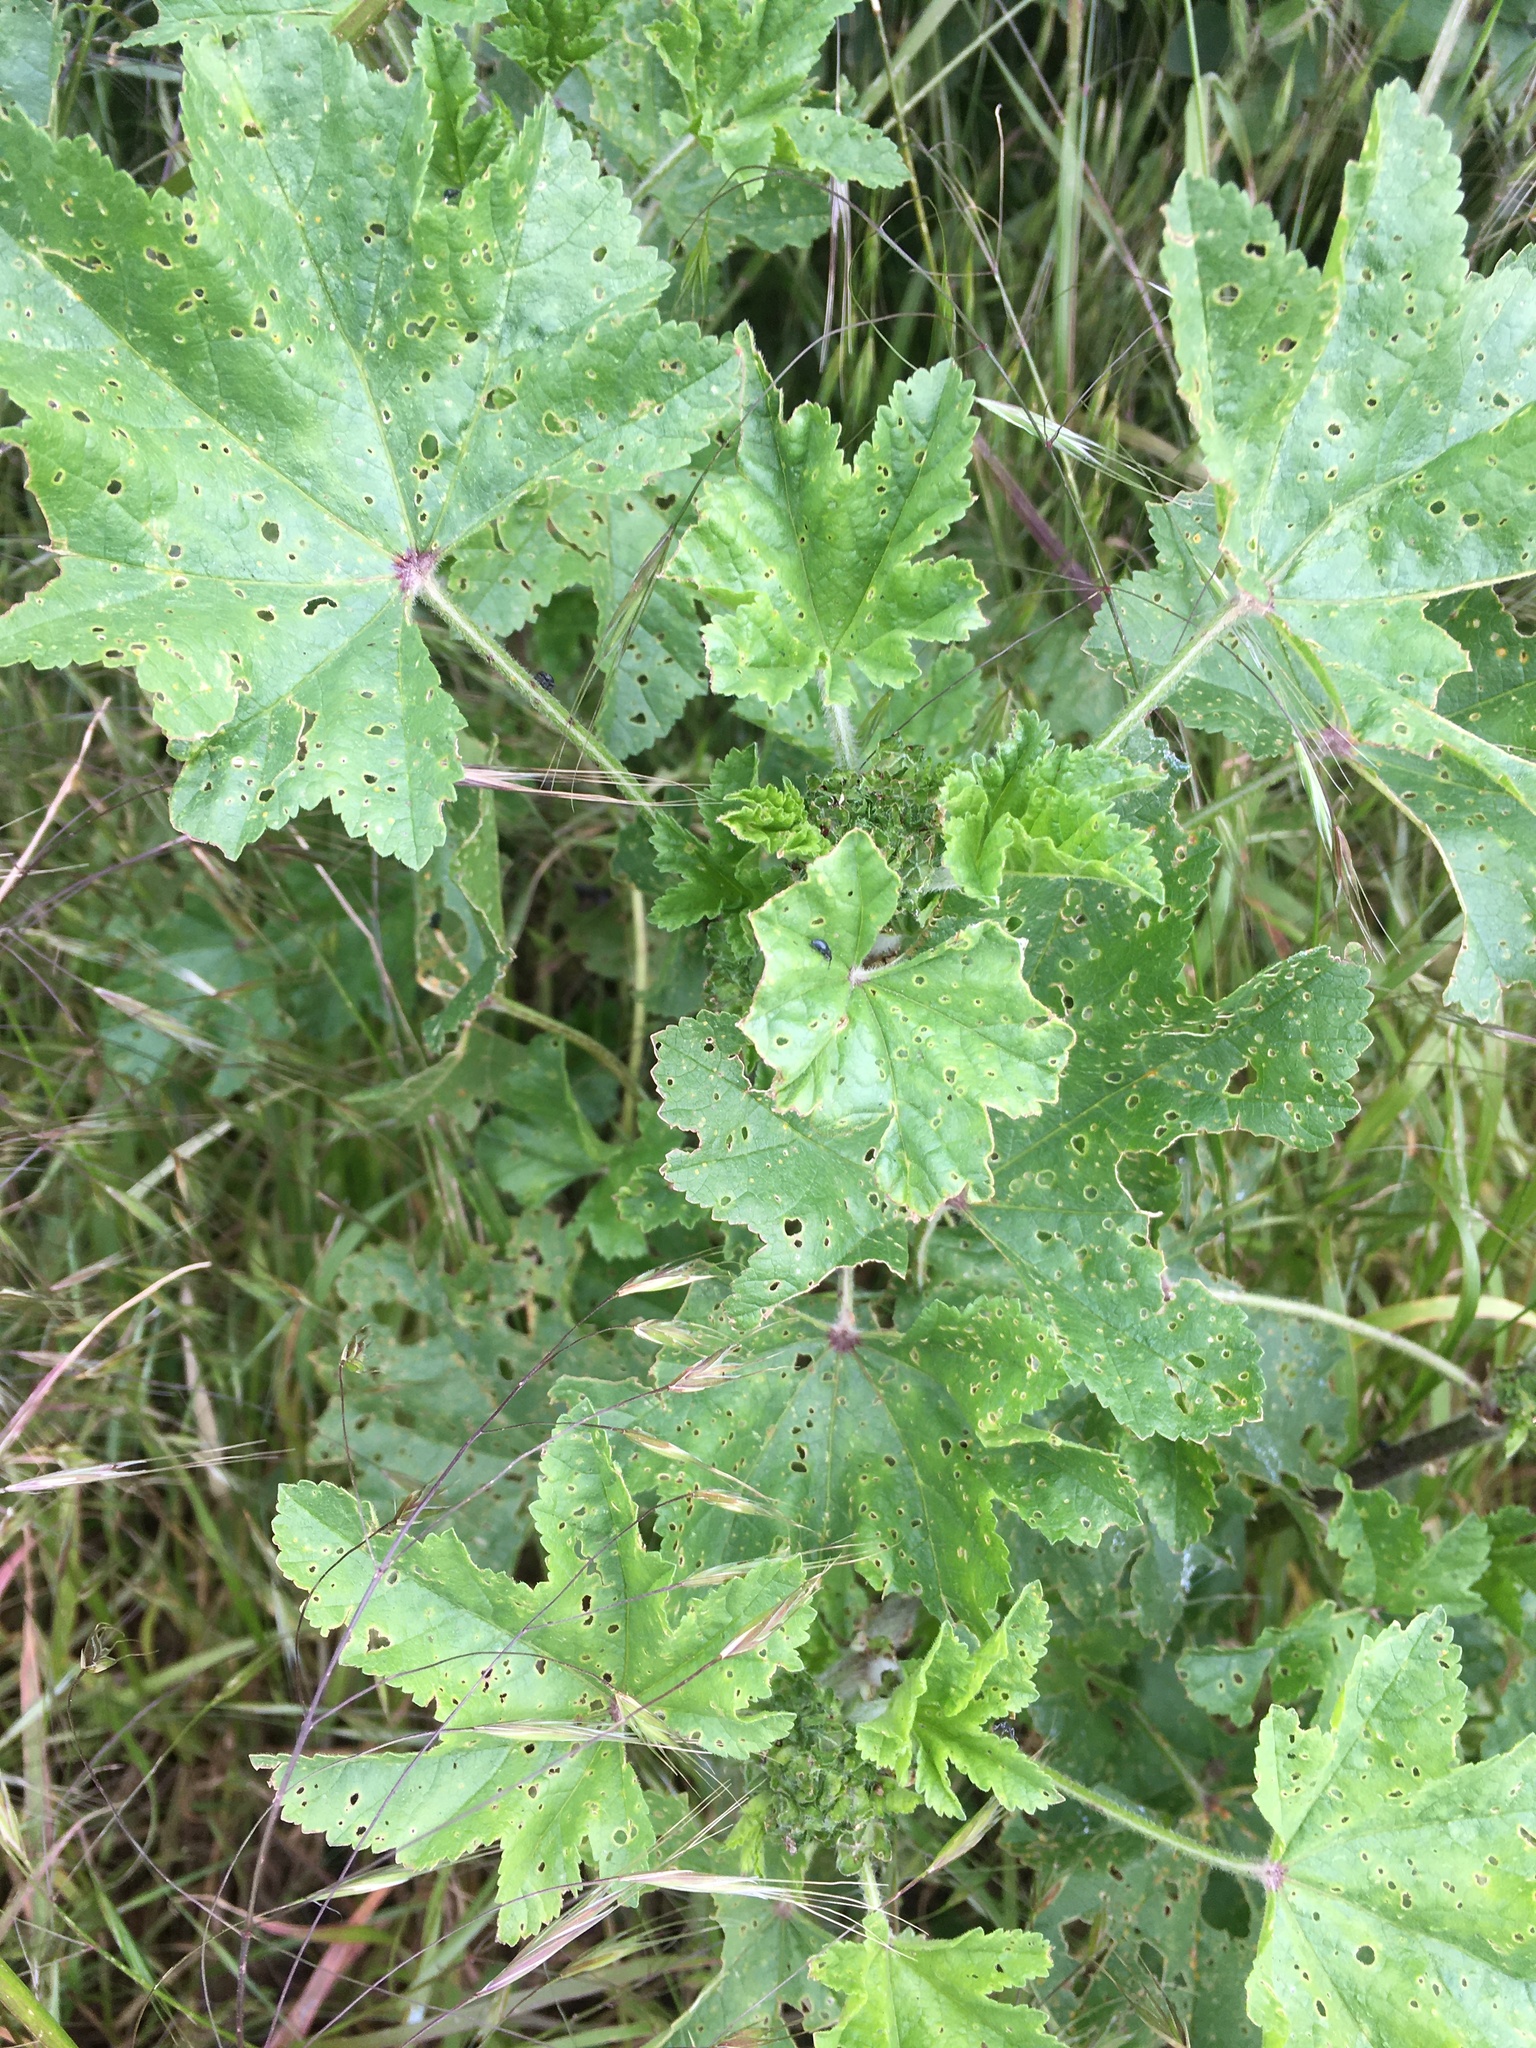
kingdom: Plantae
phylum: Tracheophyta
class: Magnoliopsida
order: Malvales
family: Malvaceae
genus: Malva
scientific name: Malva sylvestris
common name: Common mallow
